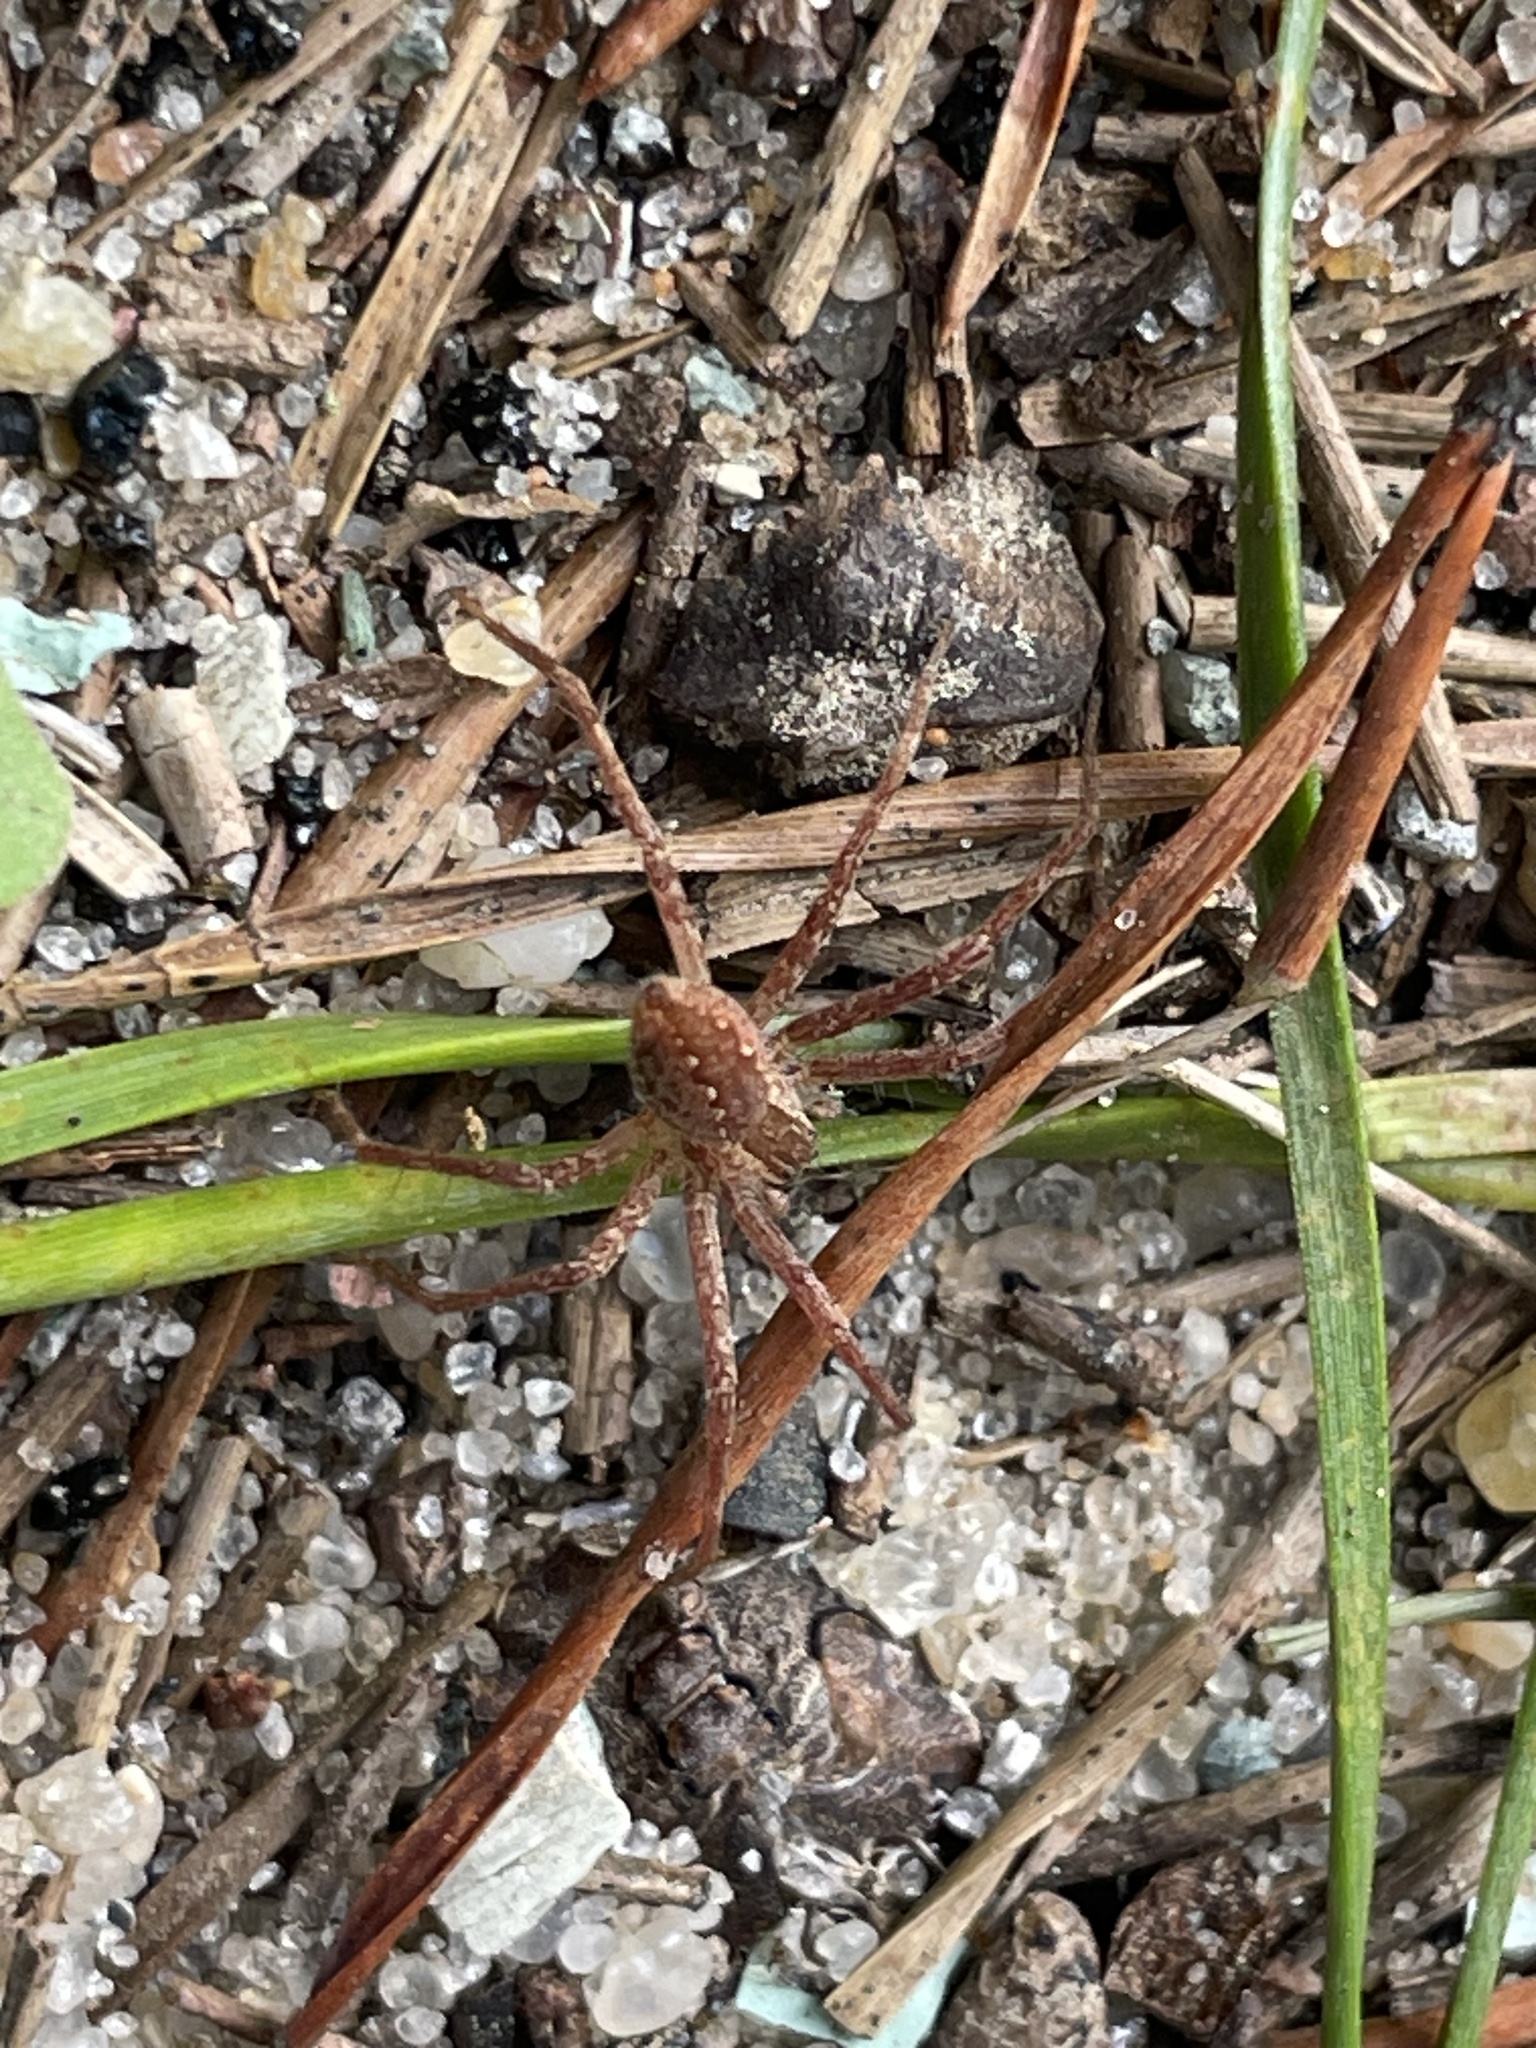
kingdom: Animalia
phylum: Arthropoda
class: Arachnida
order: Araneae
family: Pisauridae
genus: Pisaurina
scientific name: Pisaurina mira
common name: American nursery web spider
